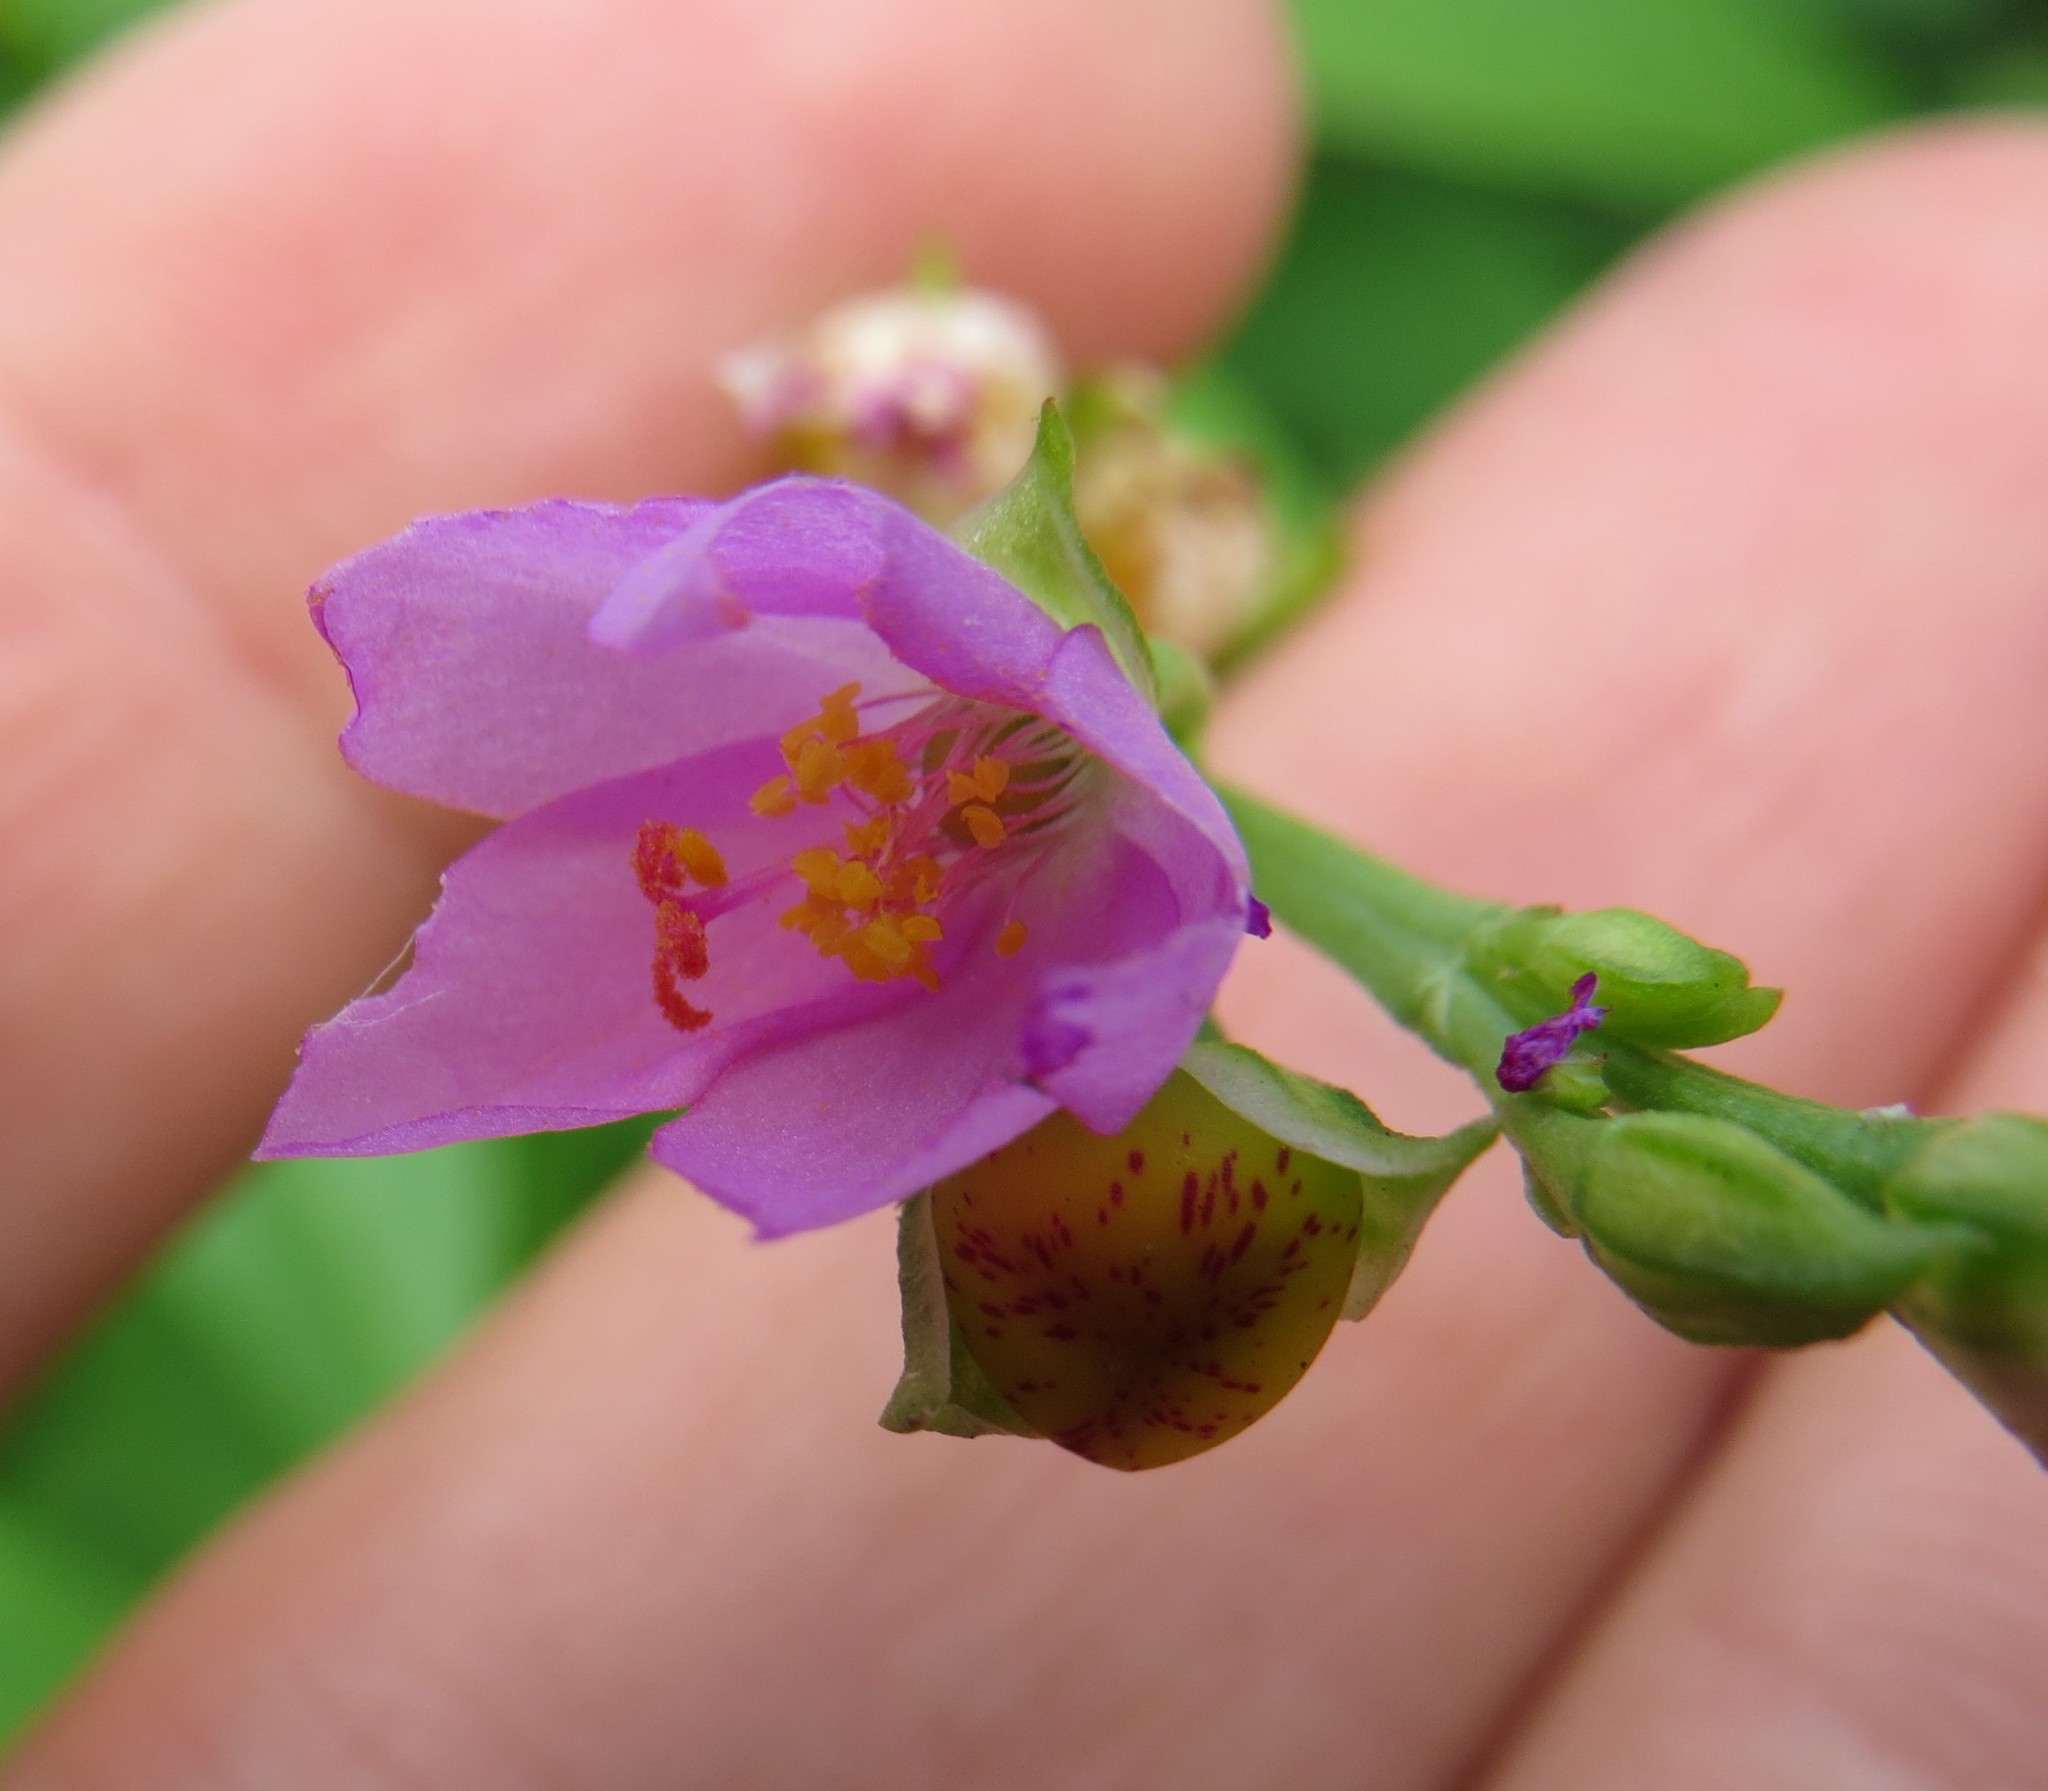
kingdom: Plantae
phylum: Tracheophyta
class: Magnoliopsida
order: Caryophyllales
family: Talinaceae
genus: Talinum
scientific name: Talinum fruticosum
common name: Verdolaga-francesa
